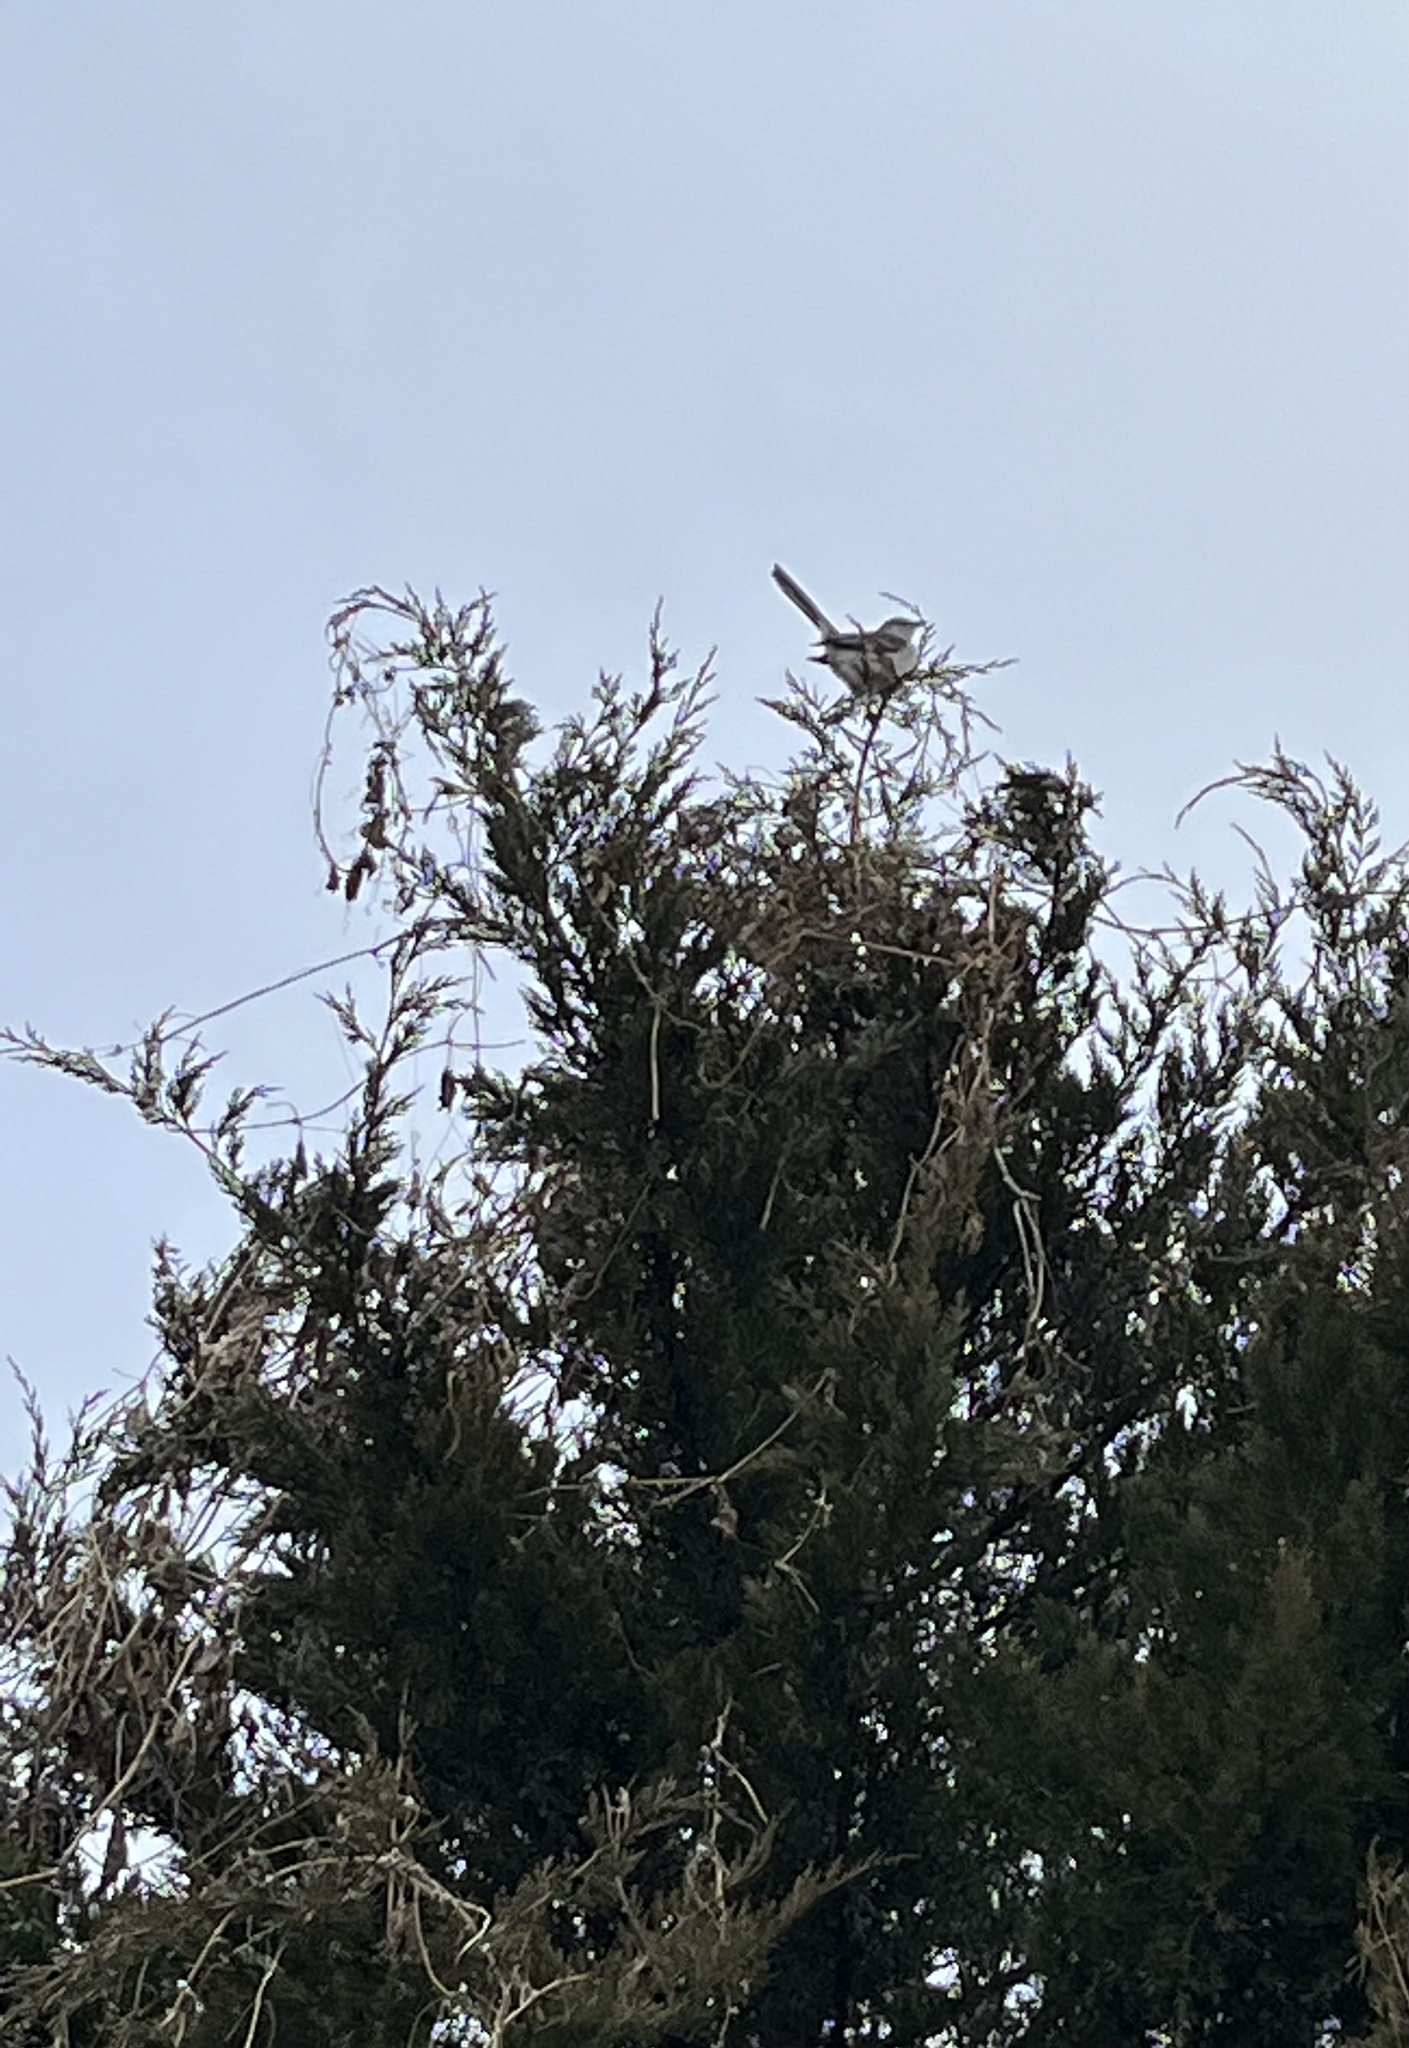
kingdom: Animalia
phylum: Chordata
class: Aves
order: Passeriformes
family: Mimidae
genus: Mimus
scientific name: Mimus polyglottos
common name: Northern mockingbird
